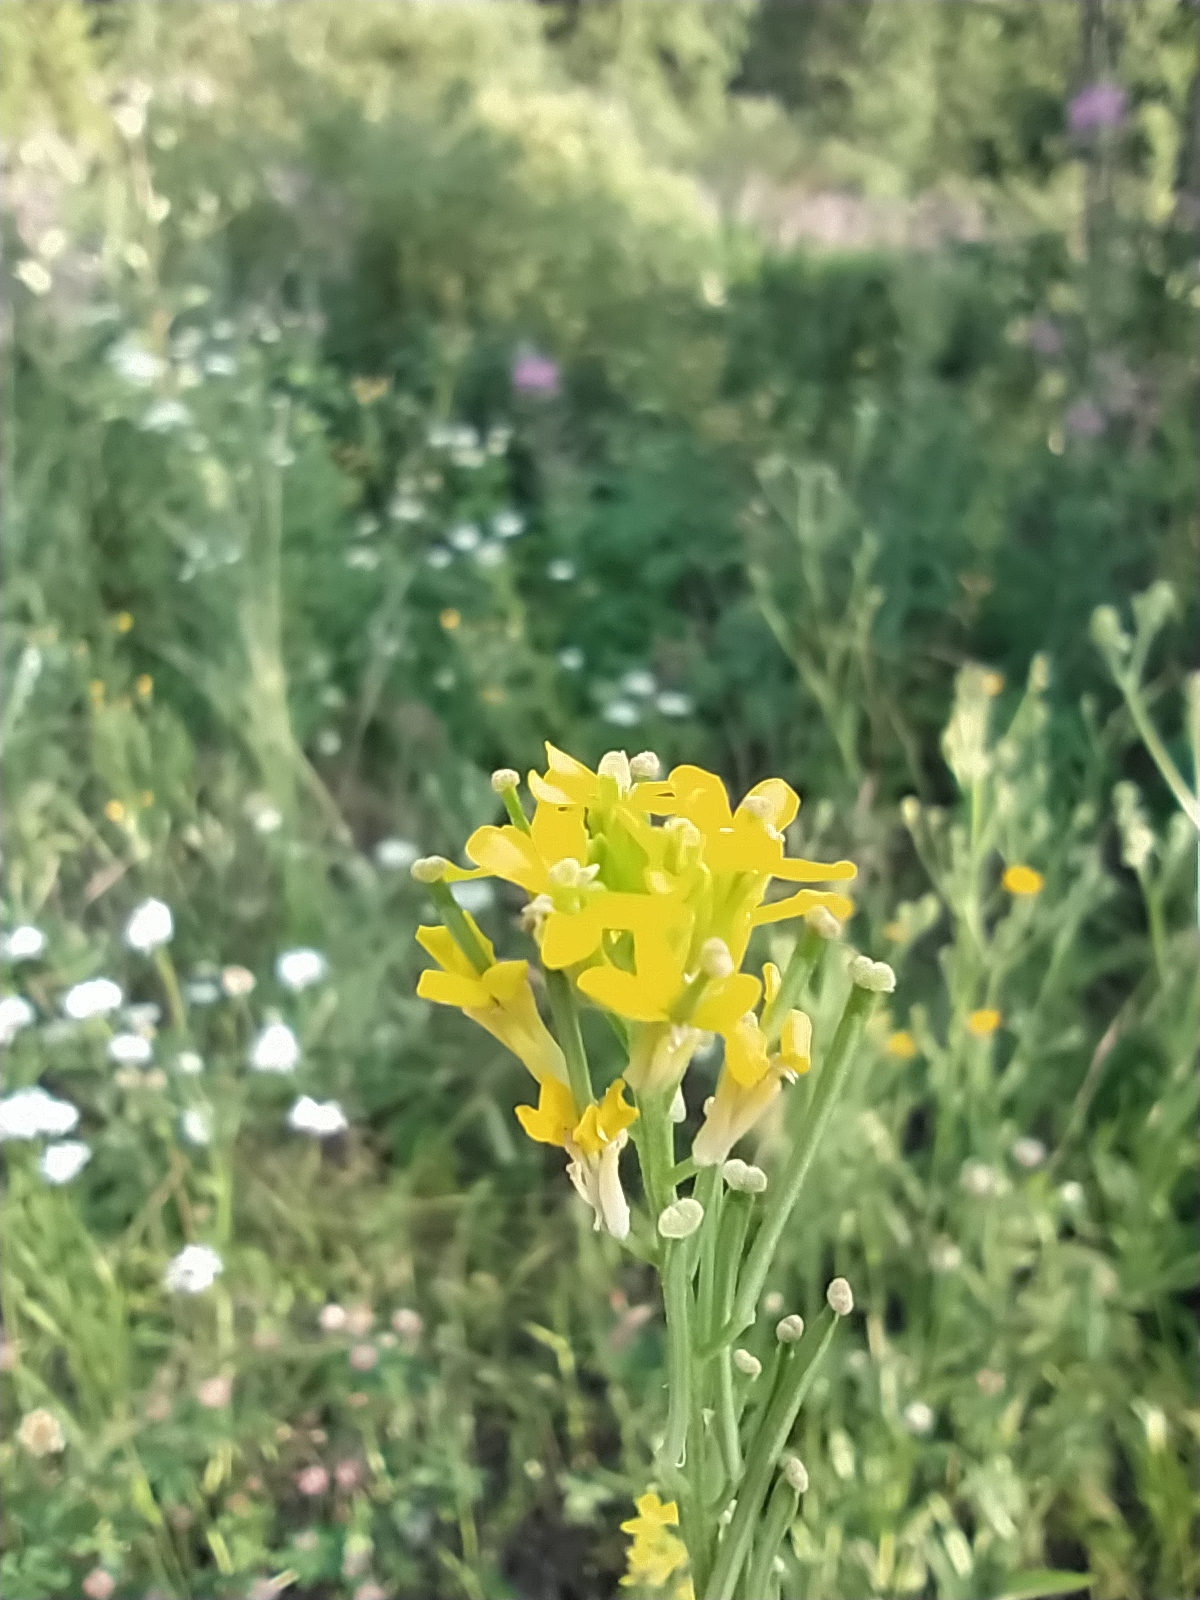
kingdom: Plantae
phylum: Tracheophyta
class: Magnoliopsida
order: Brassicales
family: Brassicaceae
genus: Erysimum
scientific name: Erysimum marschallianum
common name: Hard wallflower
